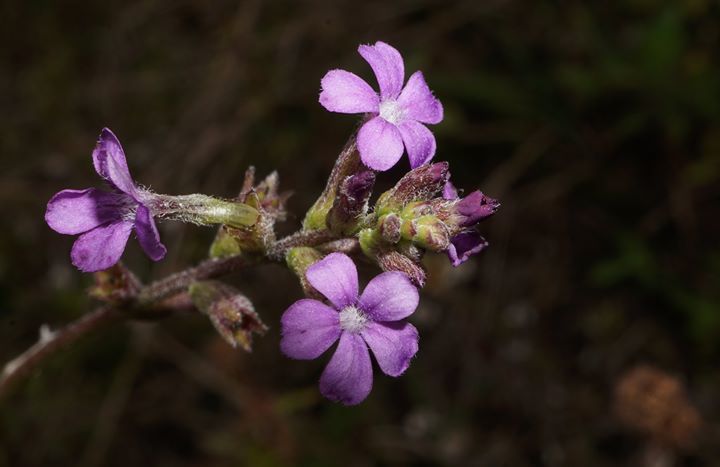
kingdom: Plantae
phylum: Tracheophyta
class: Magnoliopsida
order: Lamiales
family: Orobanchaceae
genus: Buchnera
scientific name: Buchnera floridana
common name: Florida bluehearts
